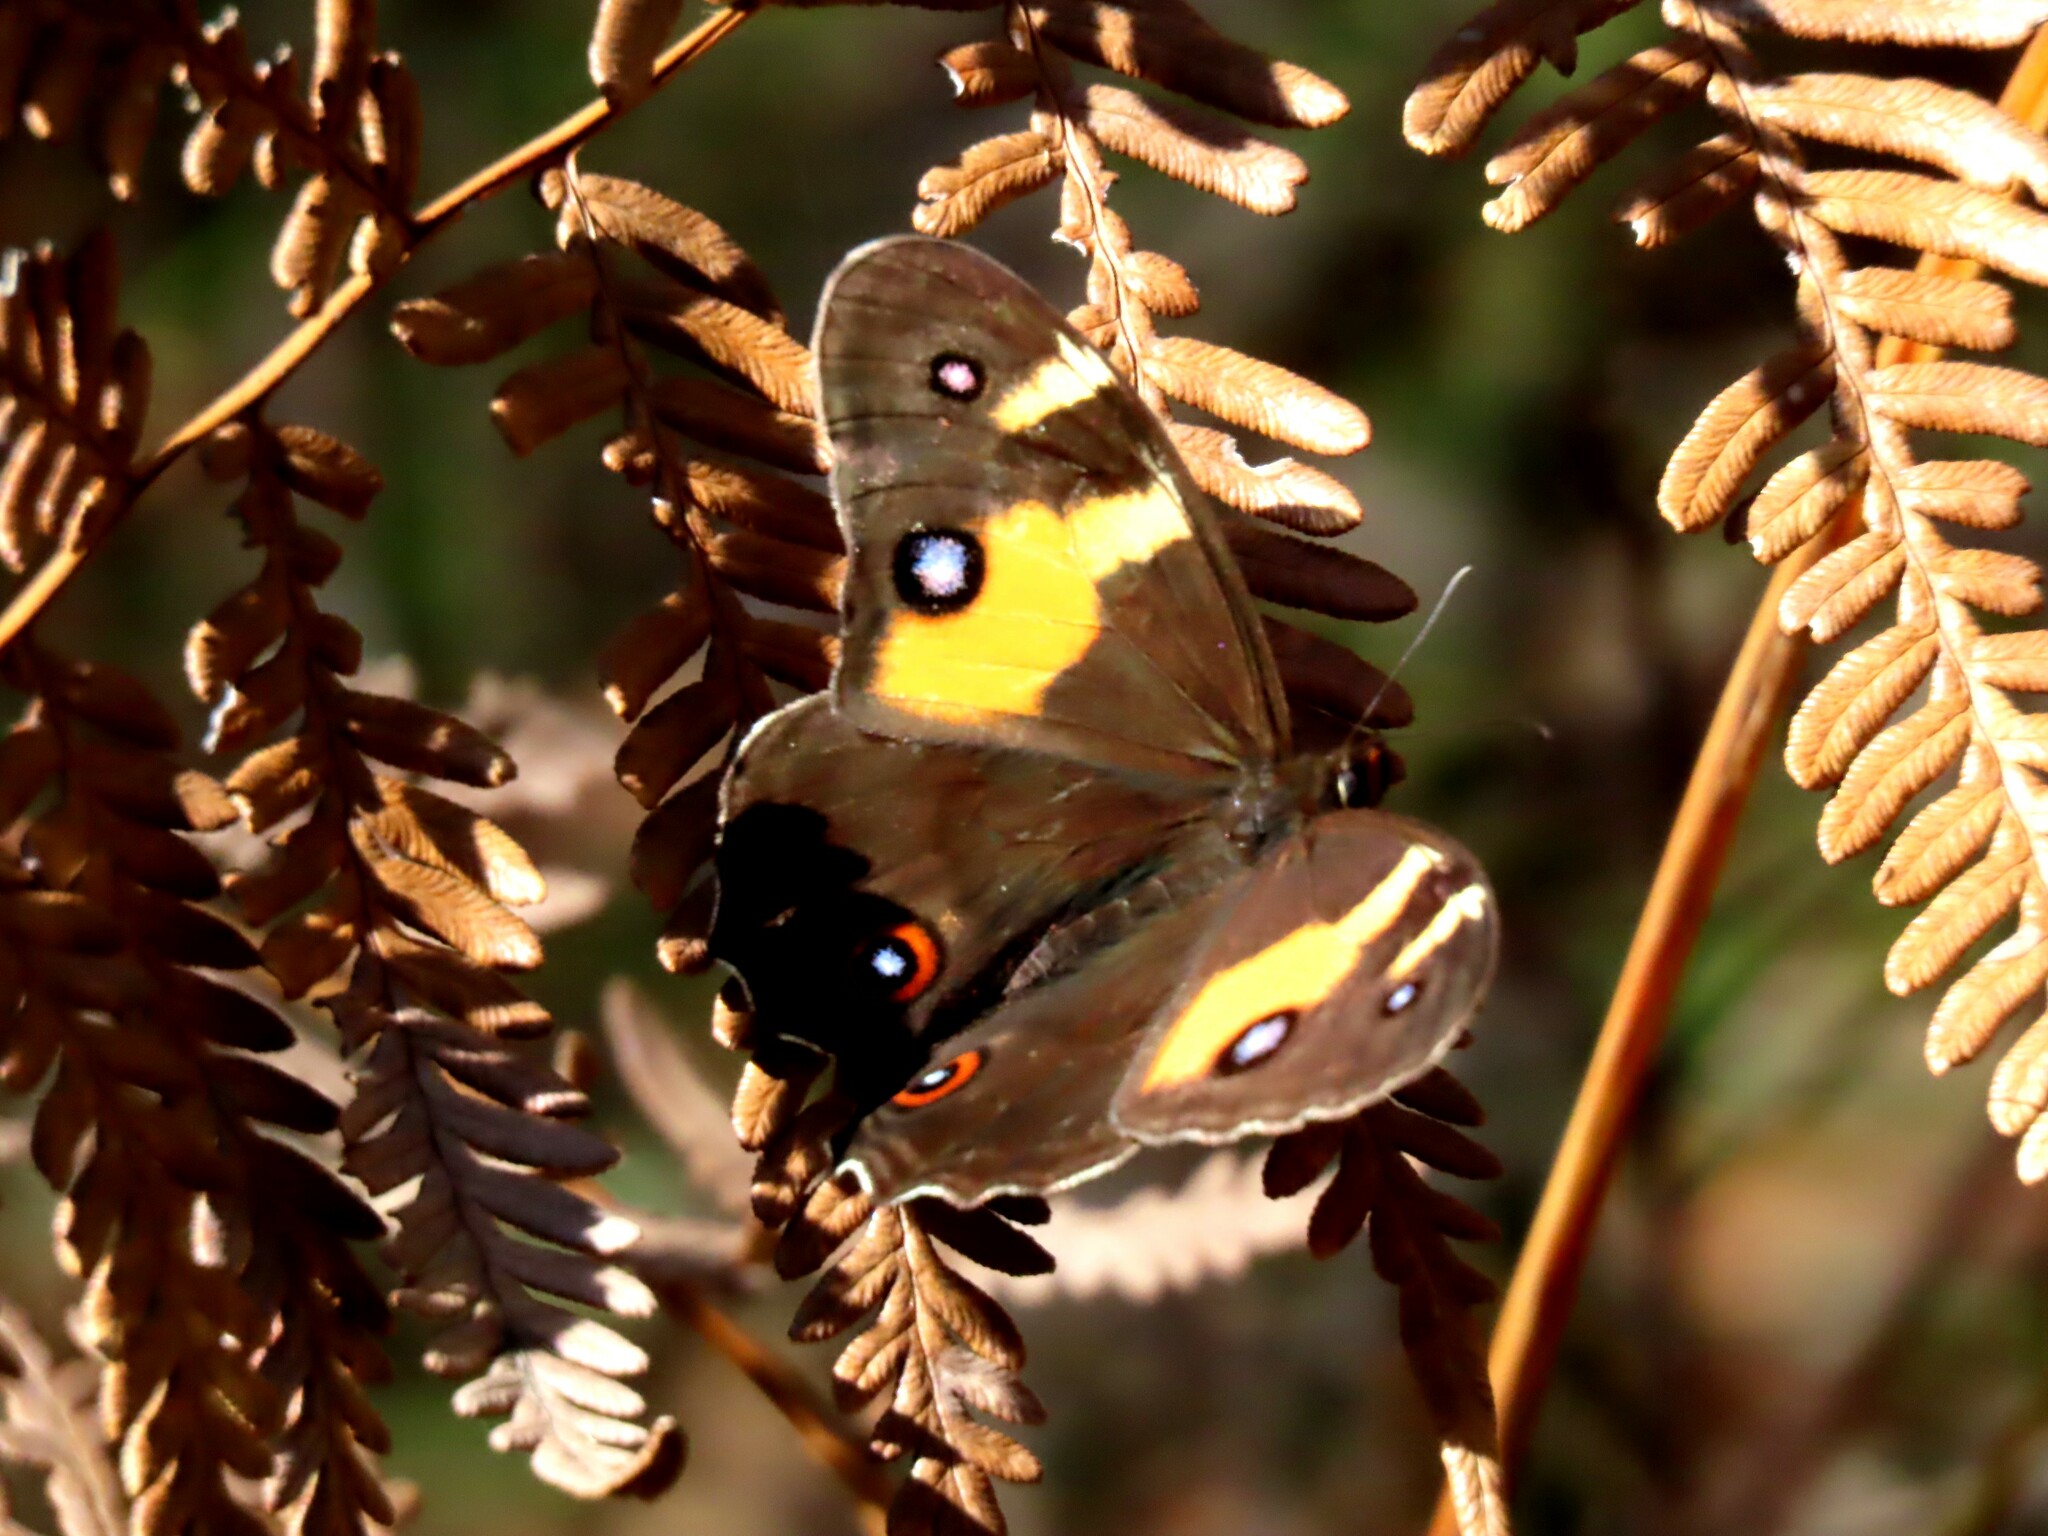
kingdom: Animalia
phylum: Arthropoda
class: Insecta
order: Lepidoptera
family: Nymphalidae
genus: Tisiphone
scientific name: Tisiphone abeona
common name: Swordgrass brown
